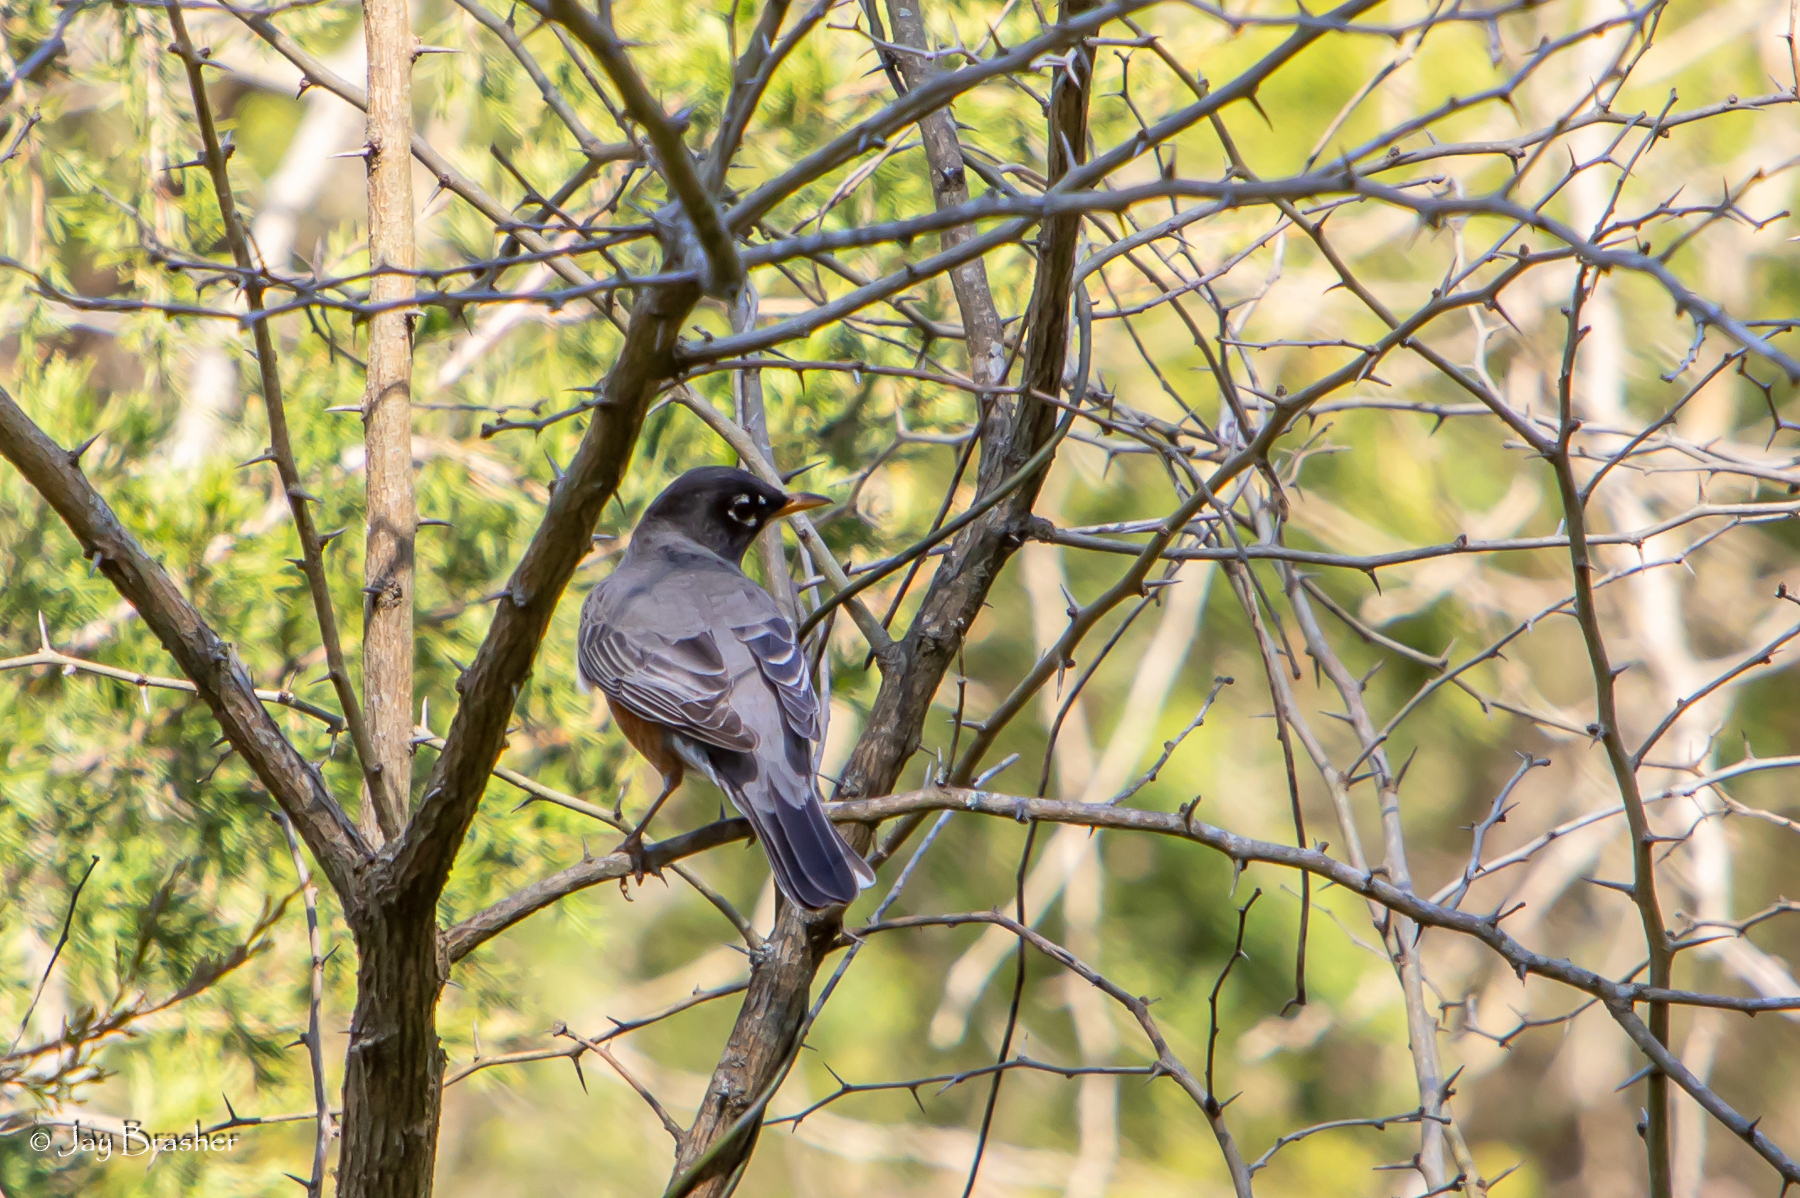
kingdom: Animalia
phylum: Chordata
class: Aves
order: Passeriformes
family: Turdidae
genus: Turdus
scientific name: Turdus migratorius
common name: American robin
